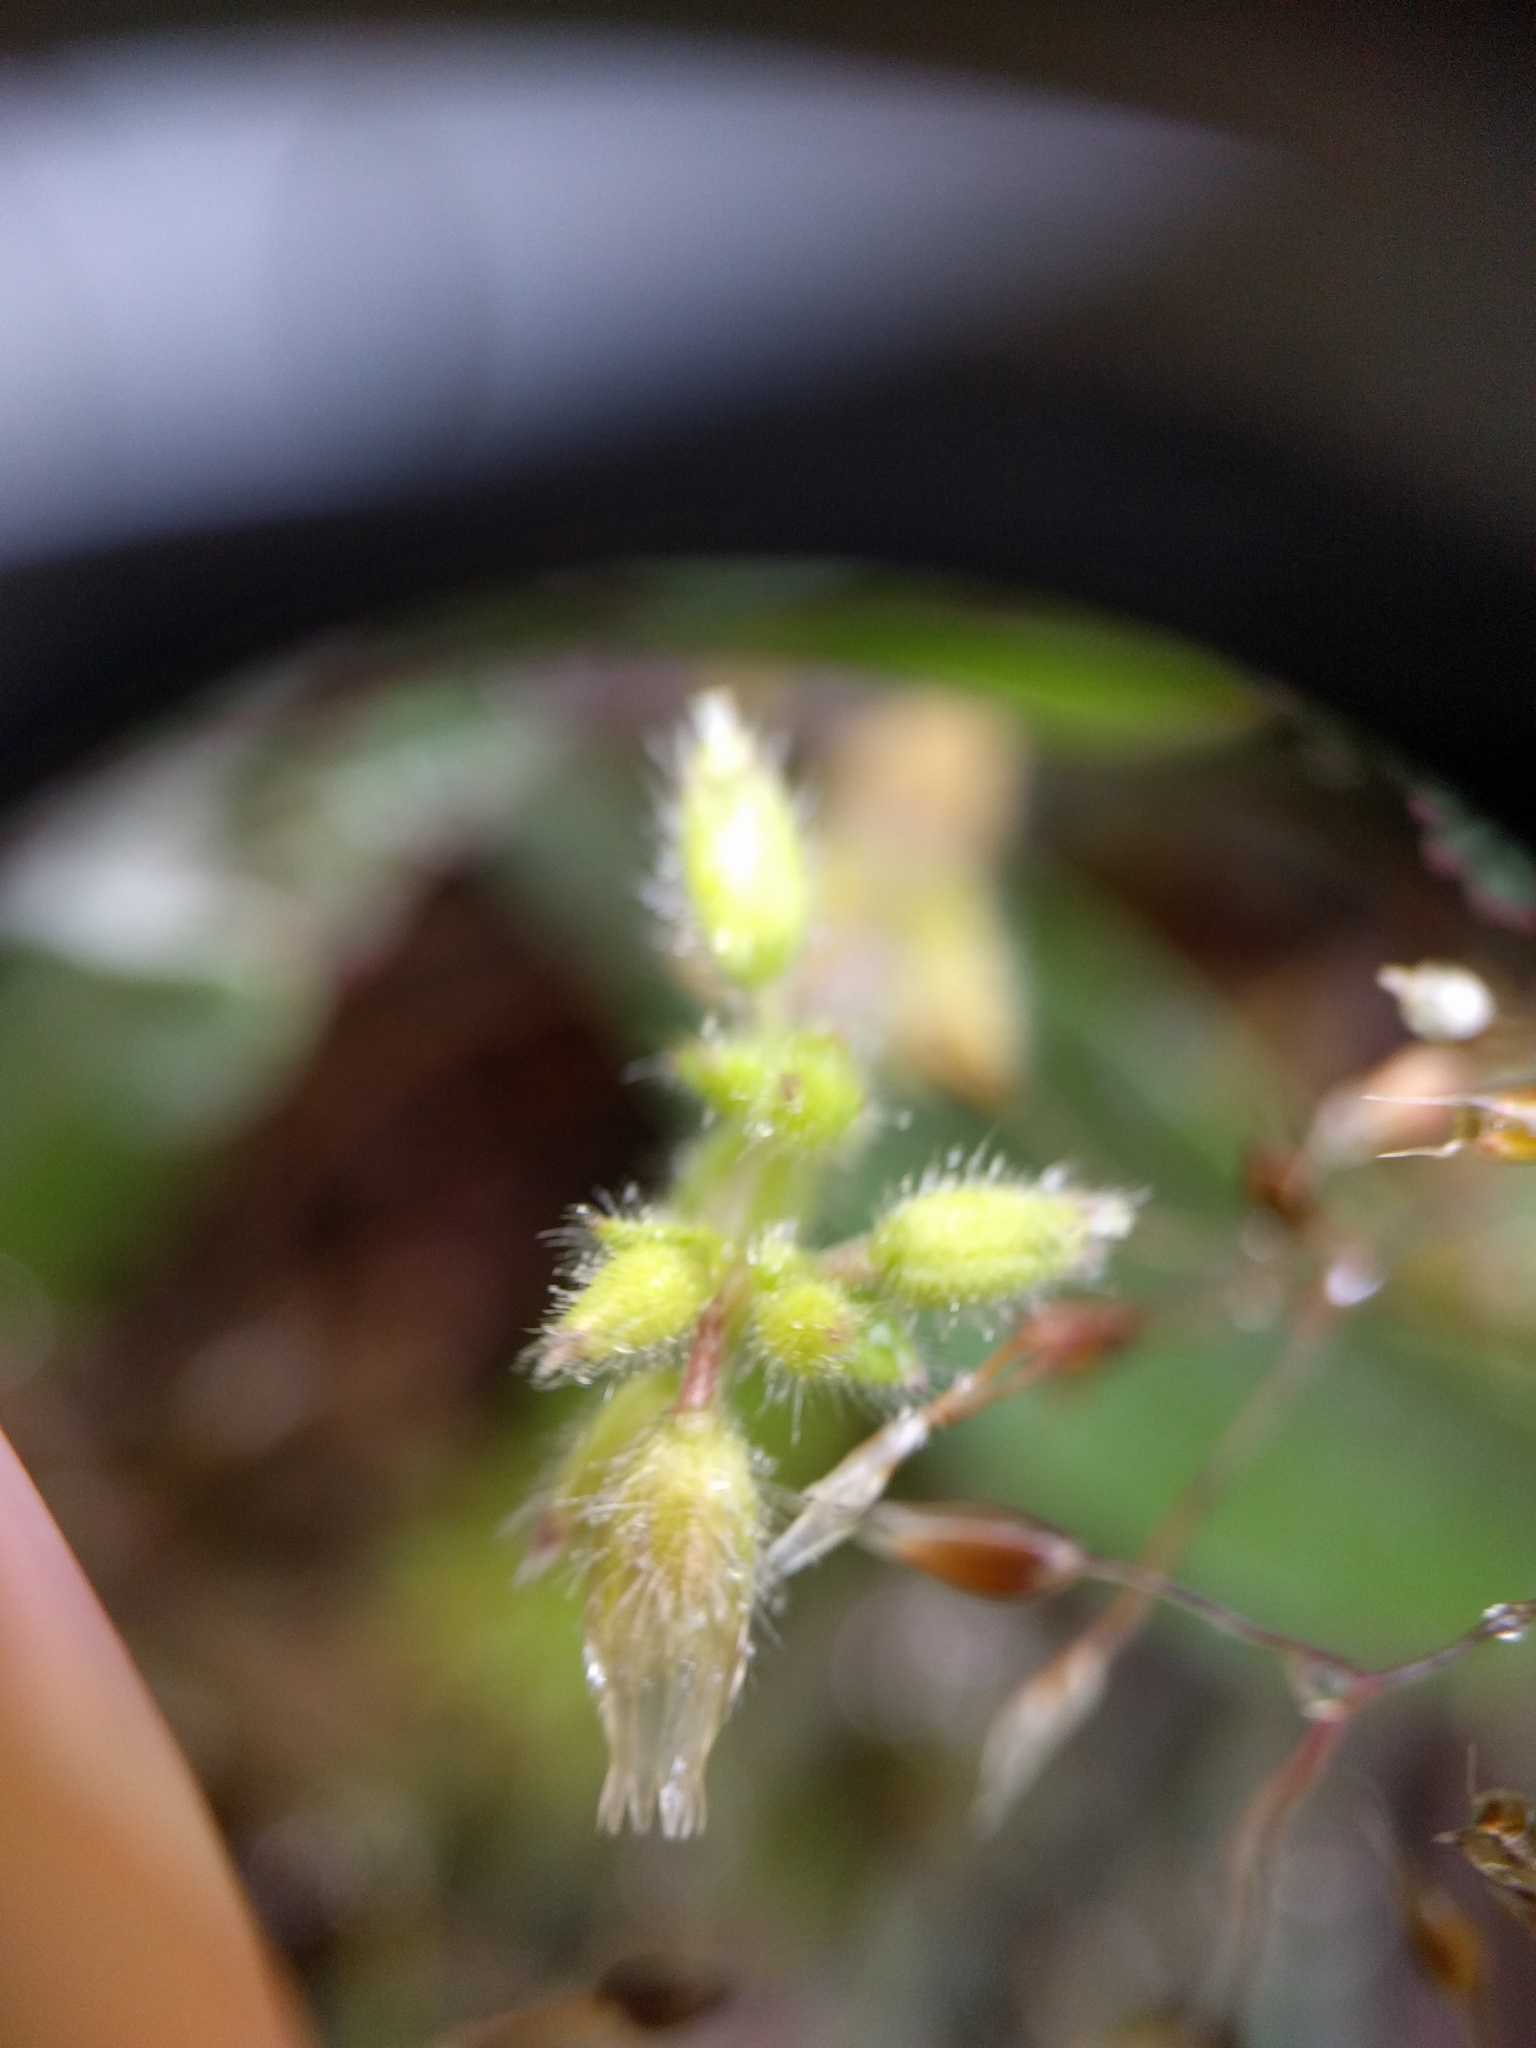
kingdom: Plantae
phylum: Tracheophyta
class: Magnoliopsida
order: Caryophyllales
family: Caryophyllaceae
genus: Cerastium
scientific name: Cerastium glomeratum
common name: Sticky chickweed
